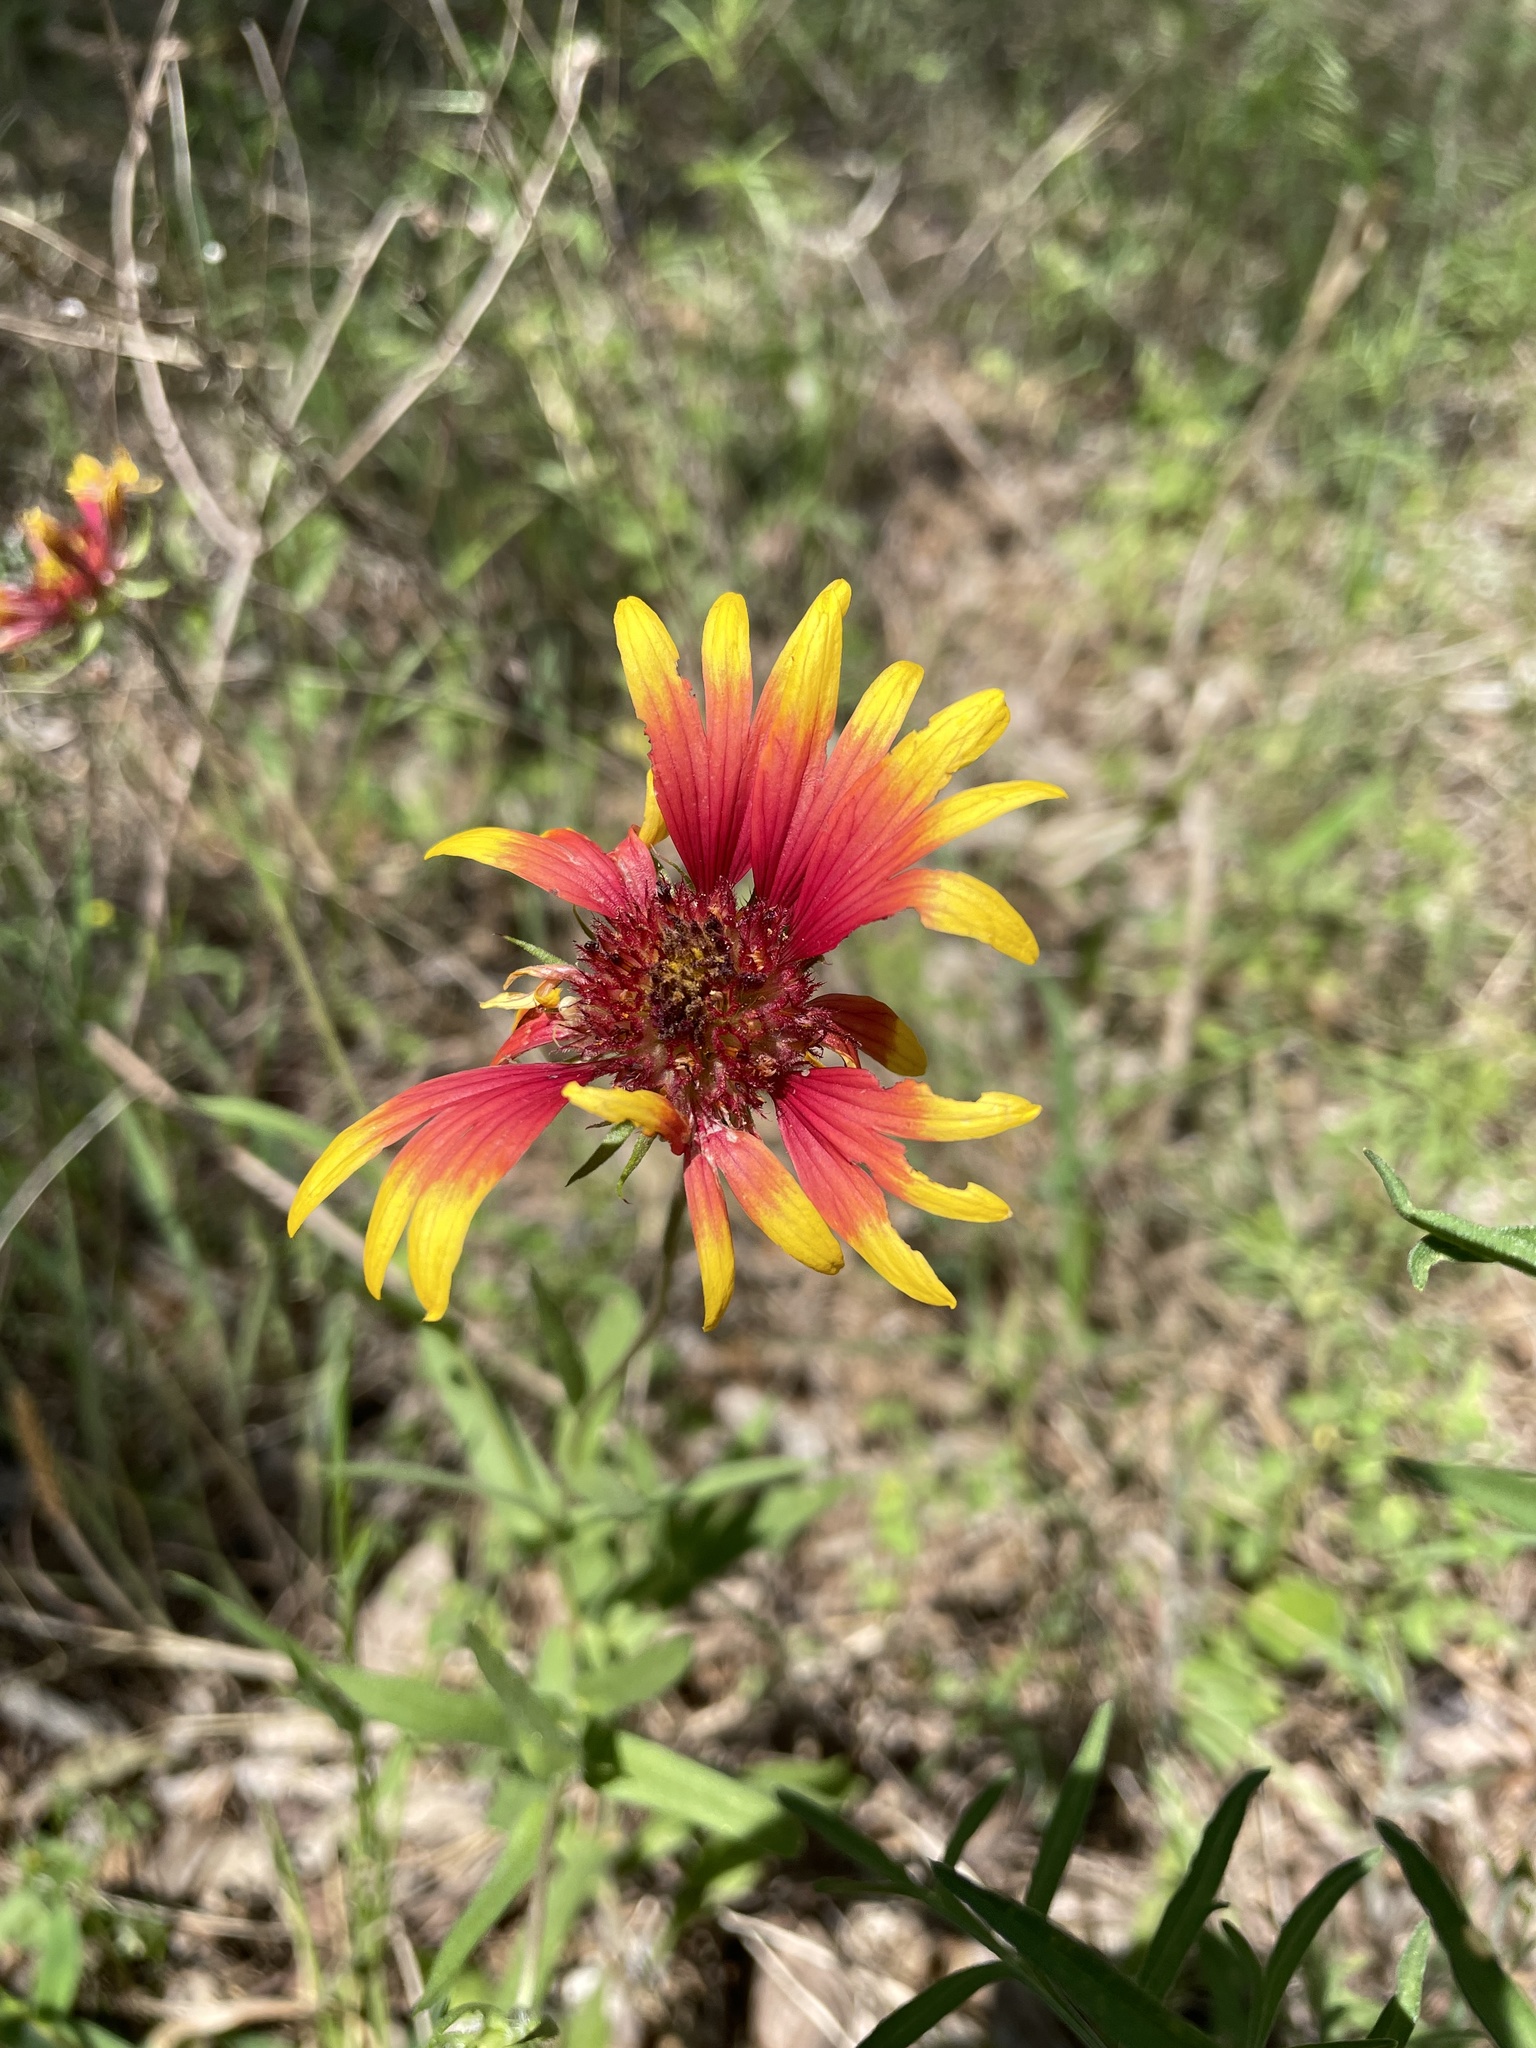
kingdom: Plantae
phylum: Tracheophyta
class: Magnoliopsida
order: Asterales
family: Asteraceae
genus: Gaillardia
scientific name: Gaillardia pulchella
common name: Firewheel
